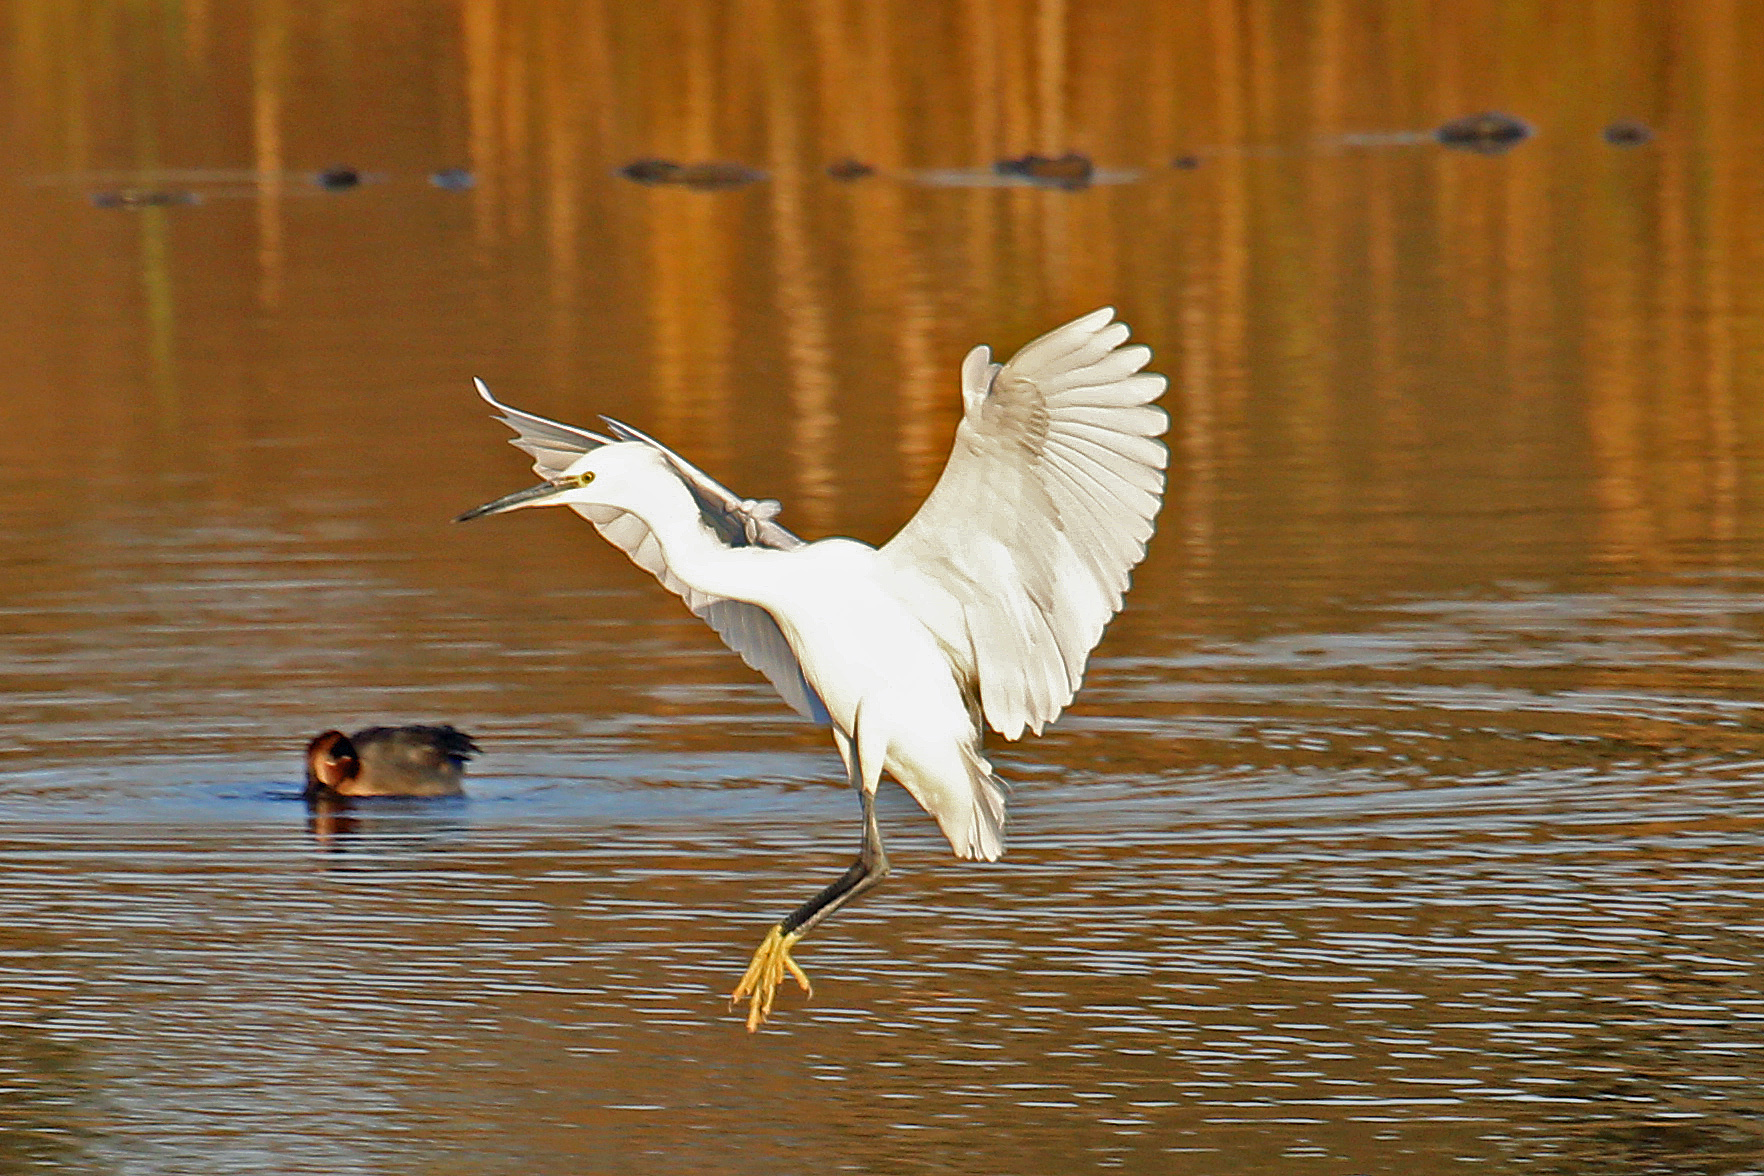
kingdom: Animalia
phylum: Chordata
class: Aves
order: Pelecaniformes
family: Ardeidae
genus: Egretta
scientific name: Egretta garzetta
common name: Little egret
